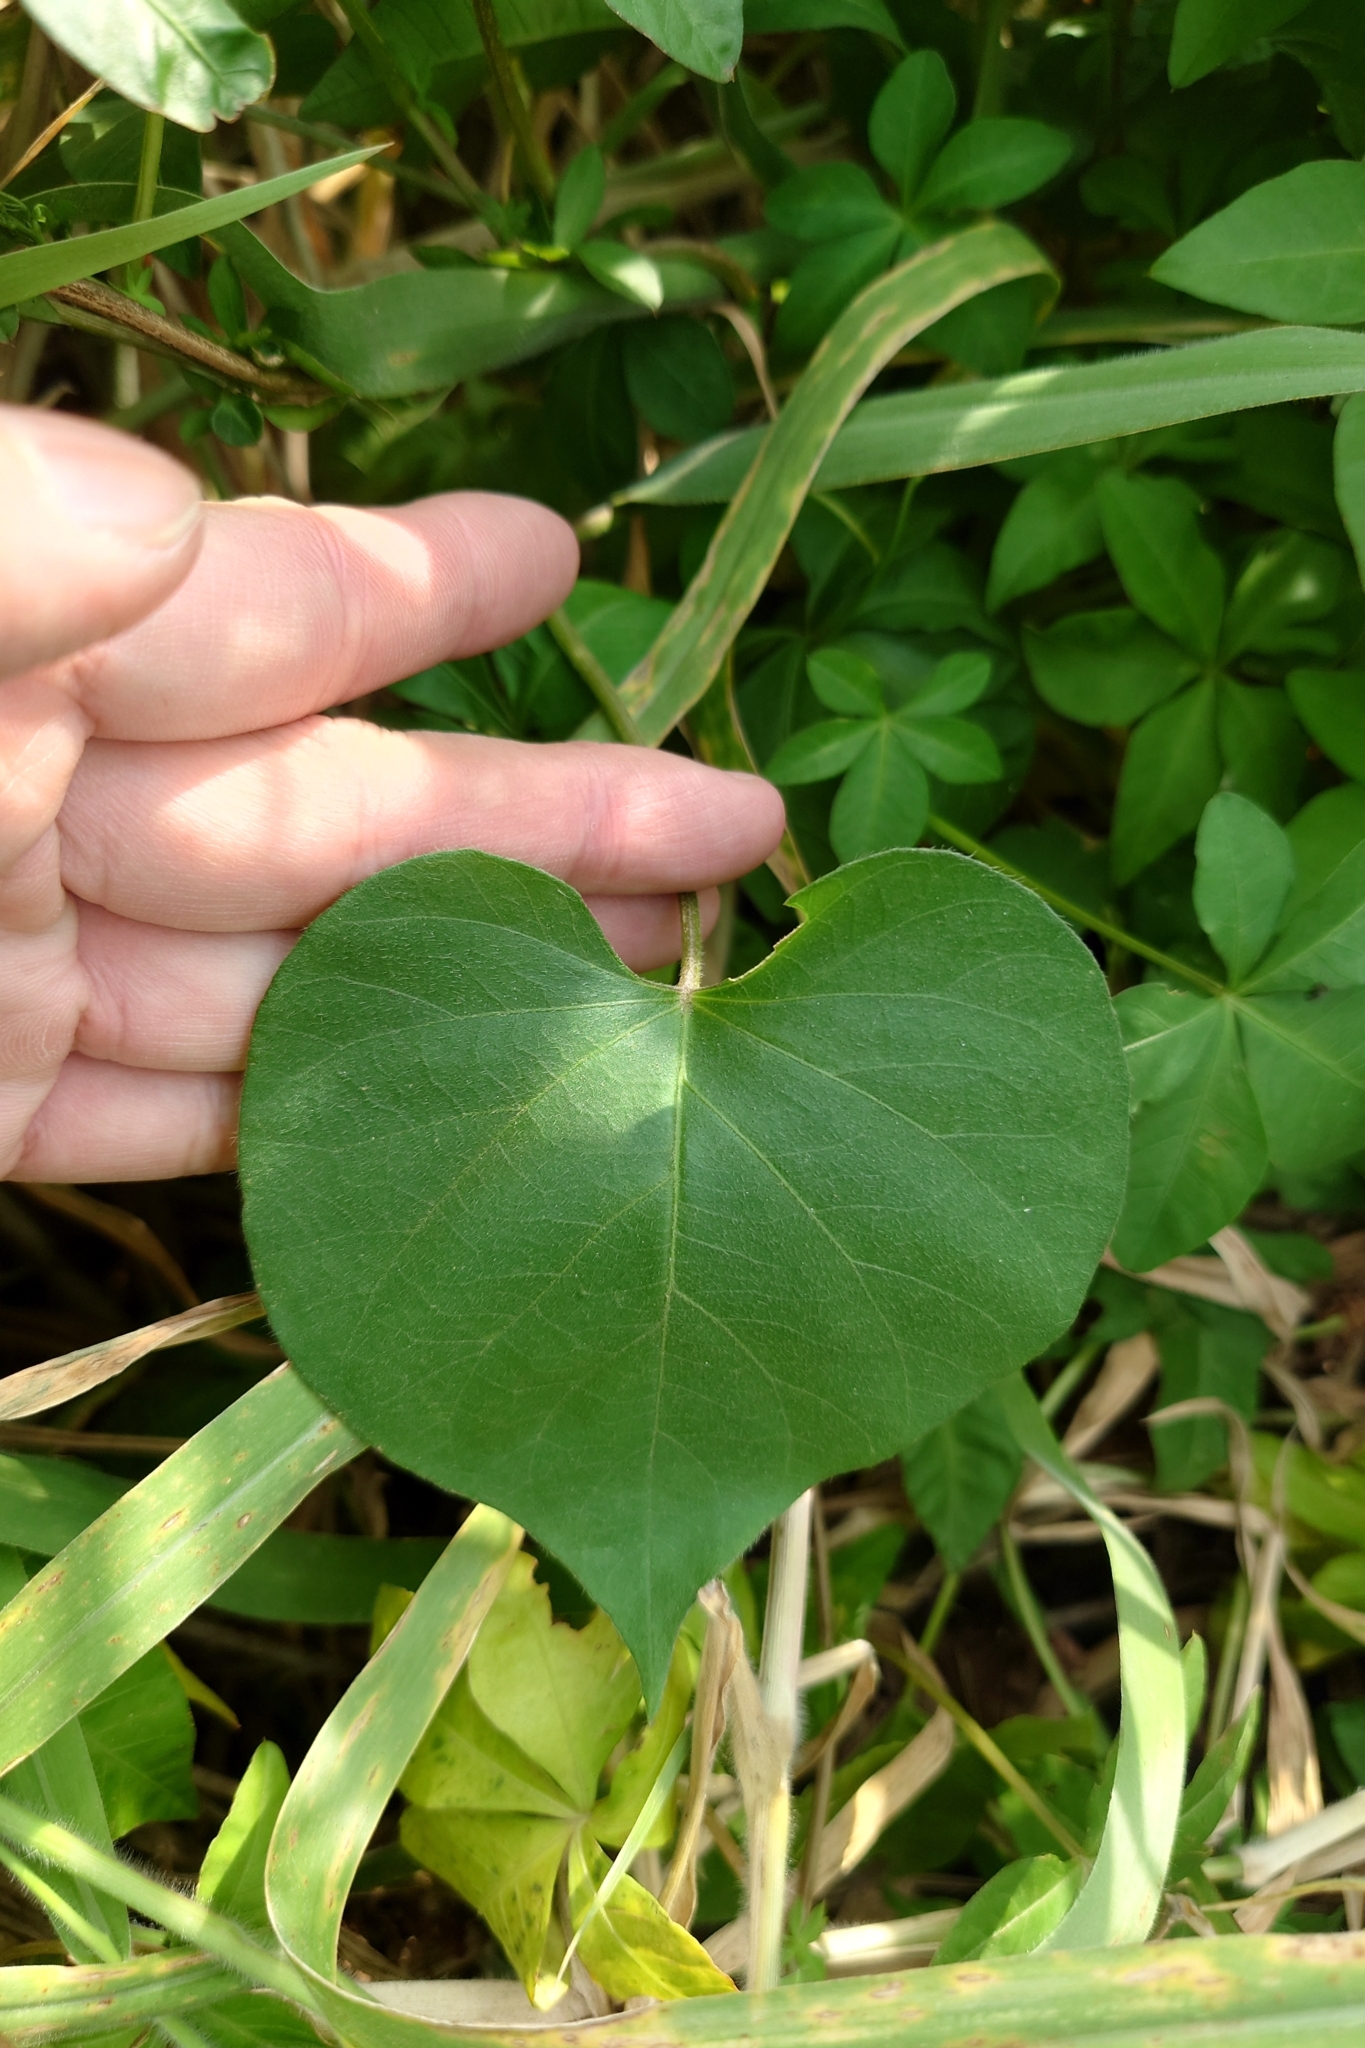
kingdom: Plantae
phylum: Tracheophyta
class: Magnoliopsida
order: Solanales
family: Convolvulaceae
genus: Ipomoea
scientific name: Ipomoea indica
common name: Blue dawnflower
